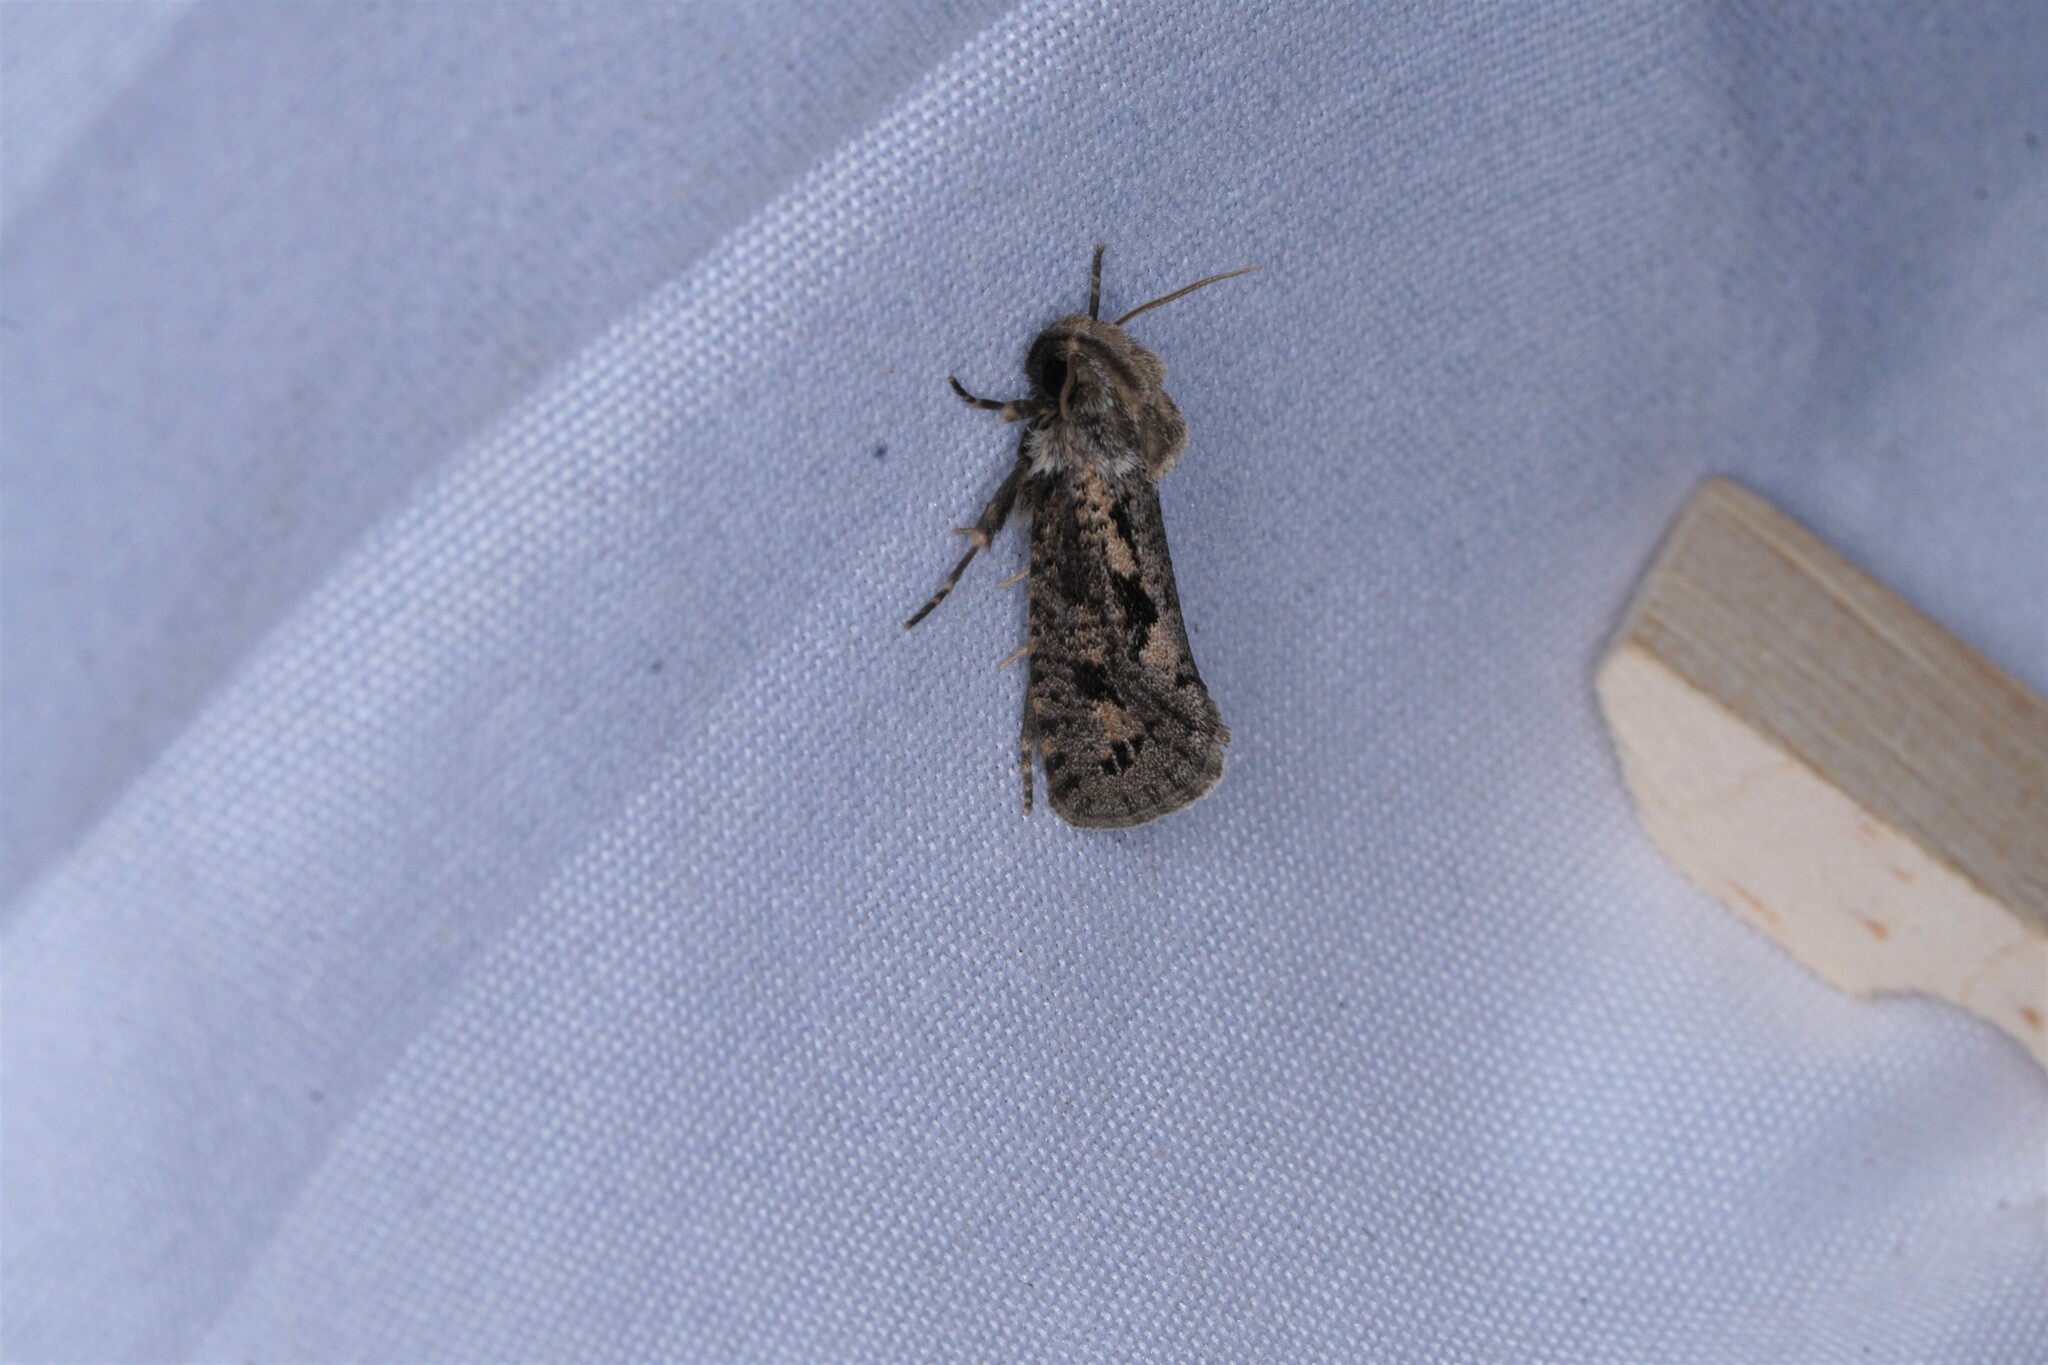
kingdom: Animalia
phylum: Arthropoda
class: Insecta
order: Lepidoptera
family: Tineidae
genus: Acrolophus
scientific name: Acrolophus popeanella
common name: Clemens' grass tubeworm moth
